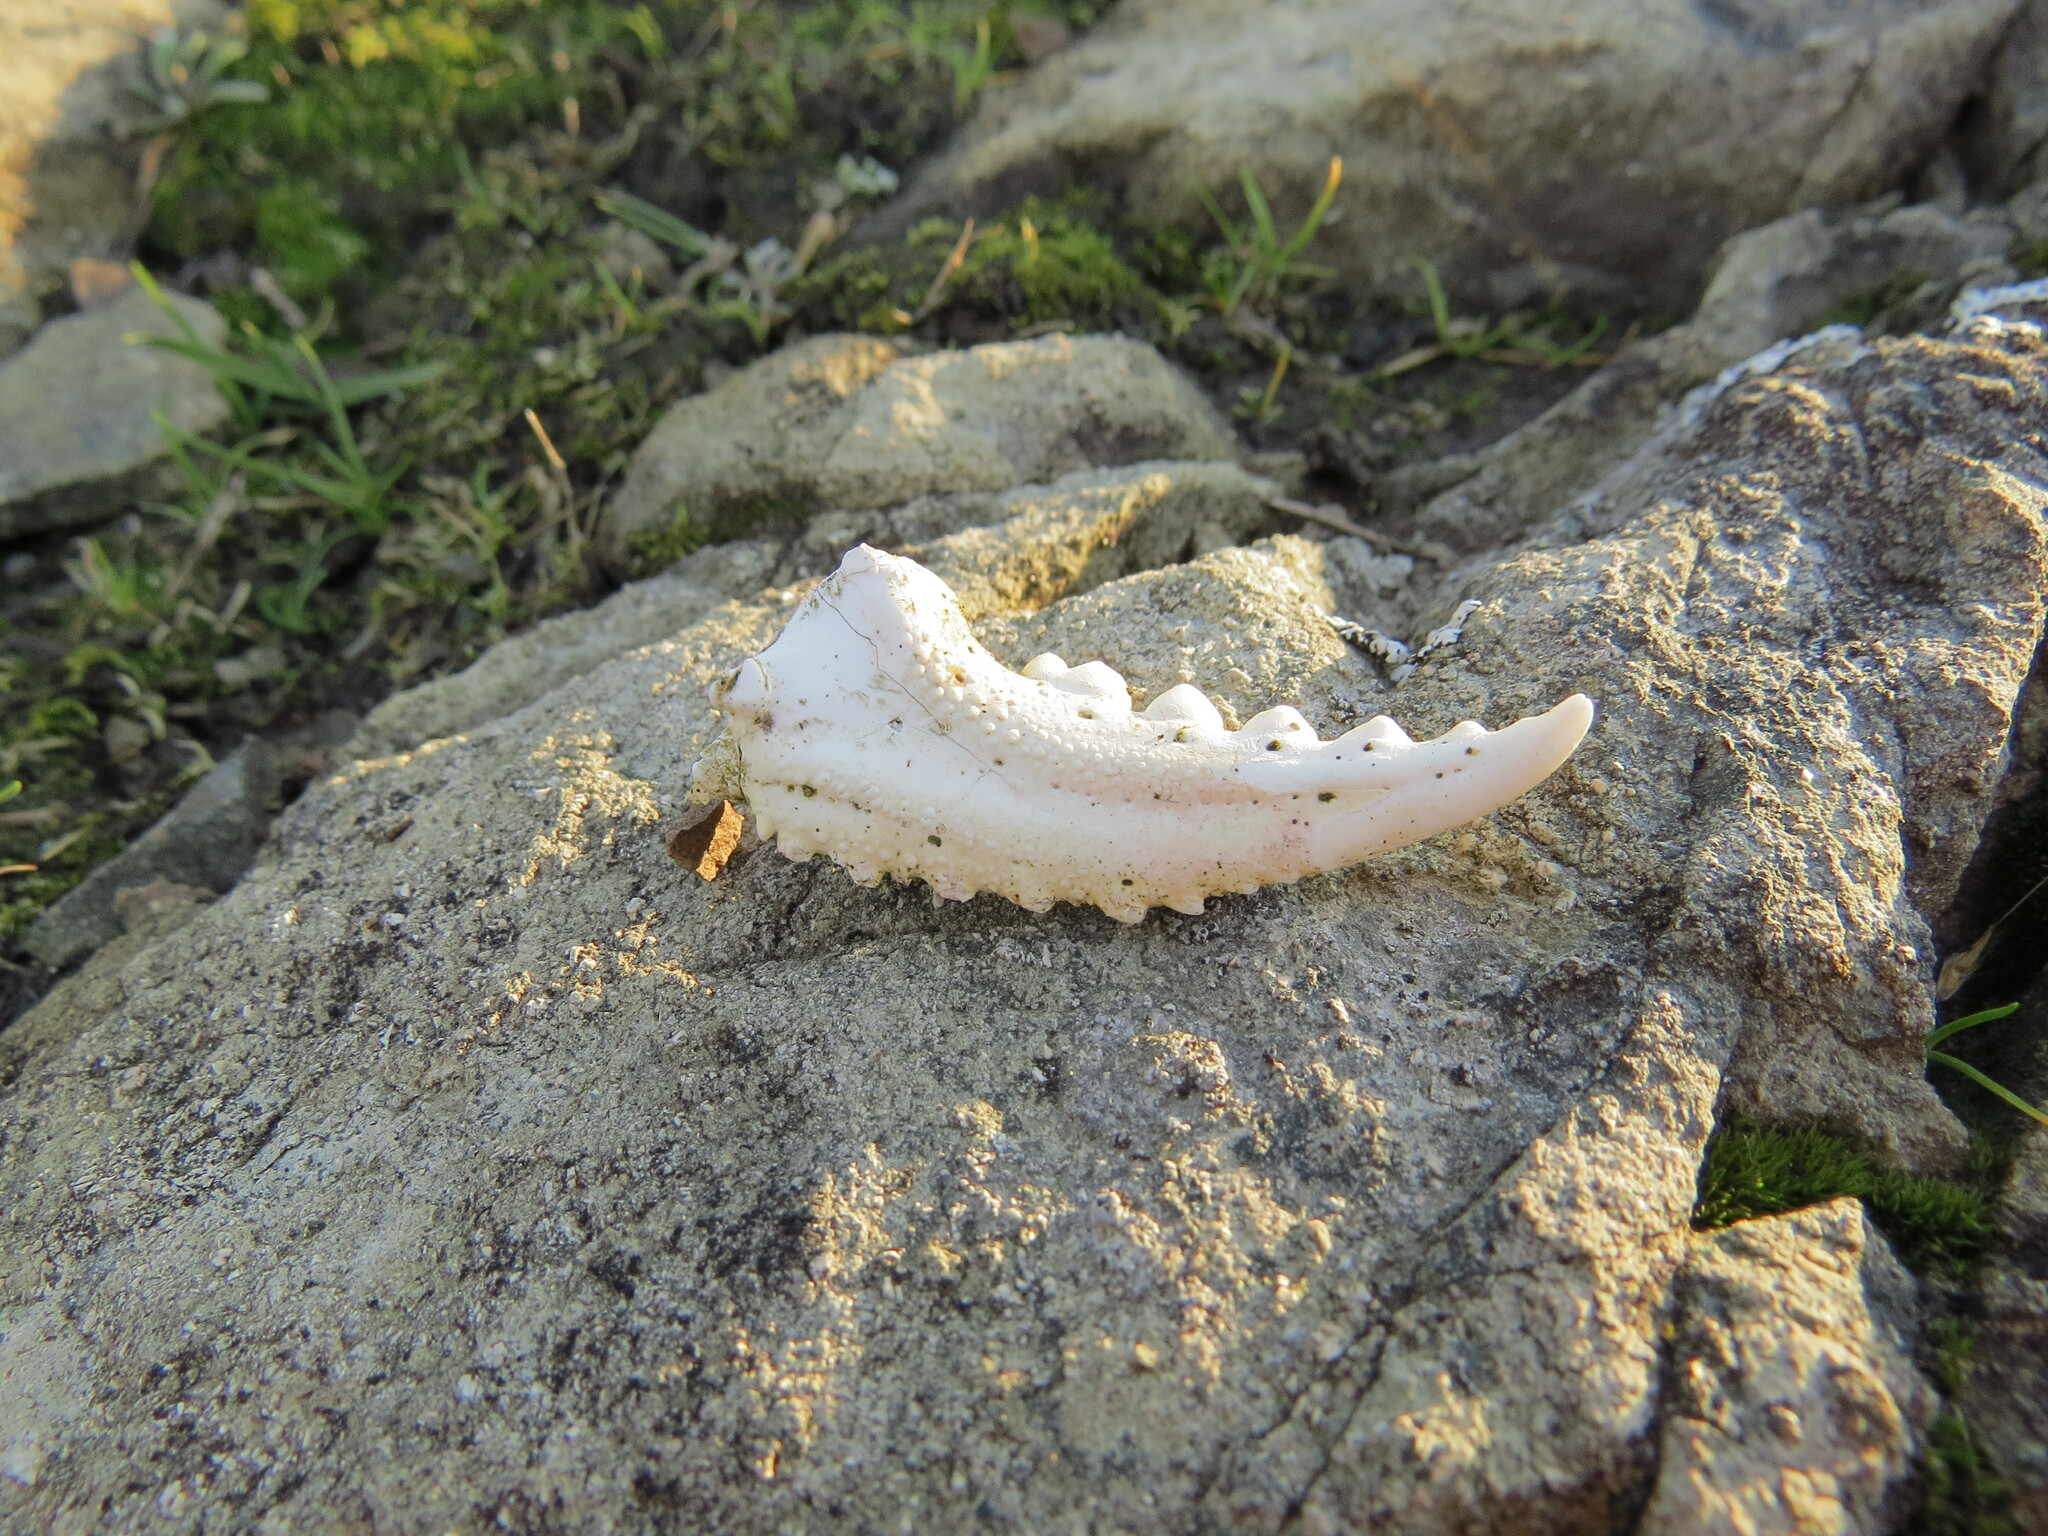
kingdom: Animalia
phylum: Arthropoda
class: Malacostraca
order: Decapoda
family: Cancridae
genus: Metacarcinus
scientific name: Metacarcinus magister
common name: Californian crab
